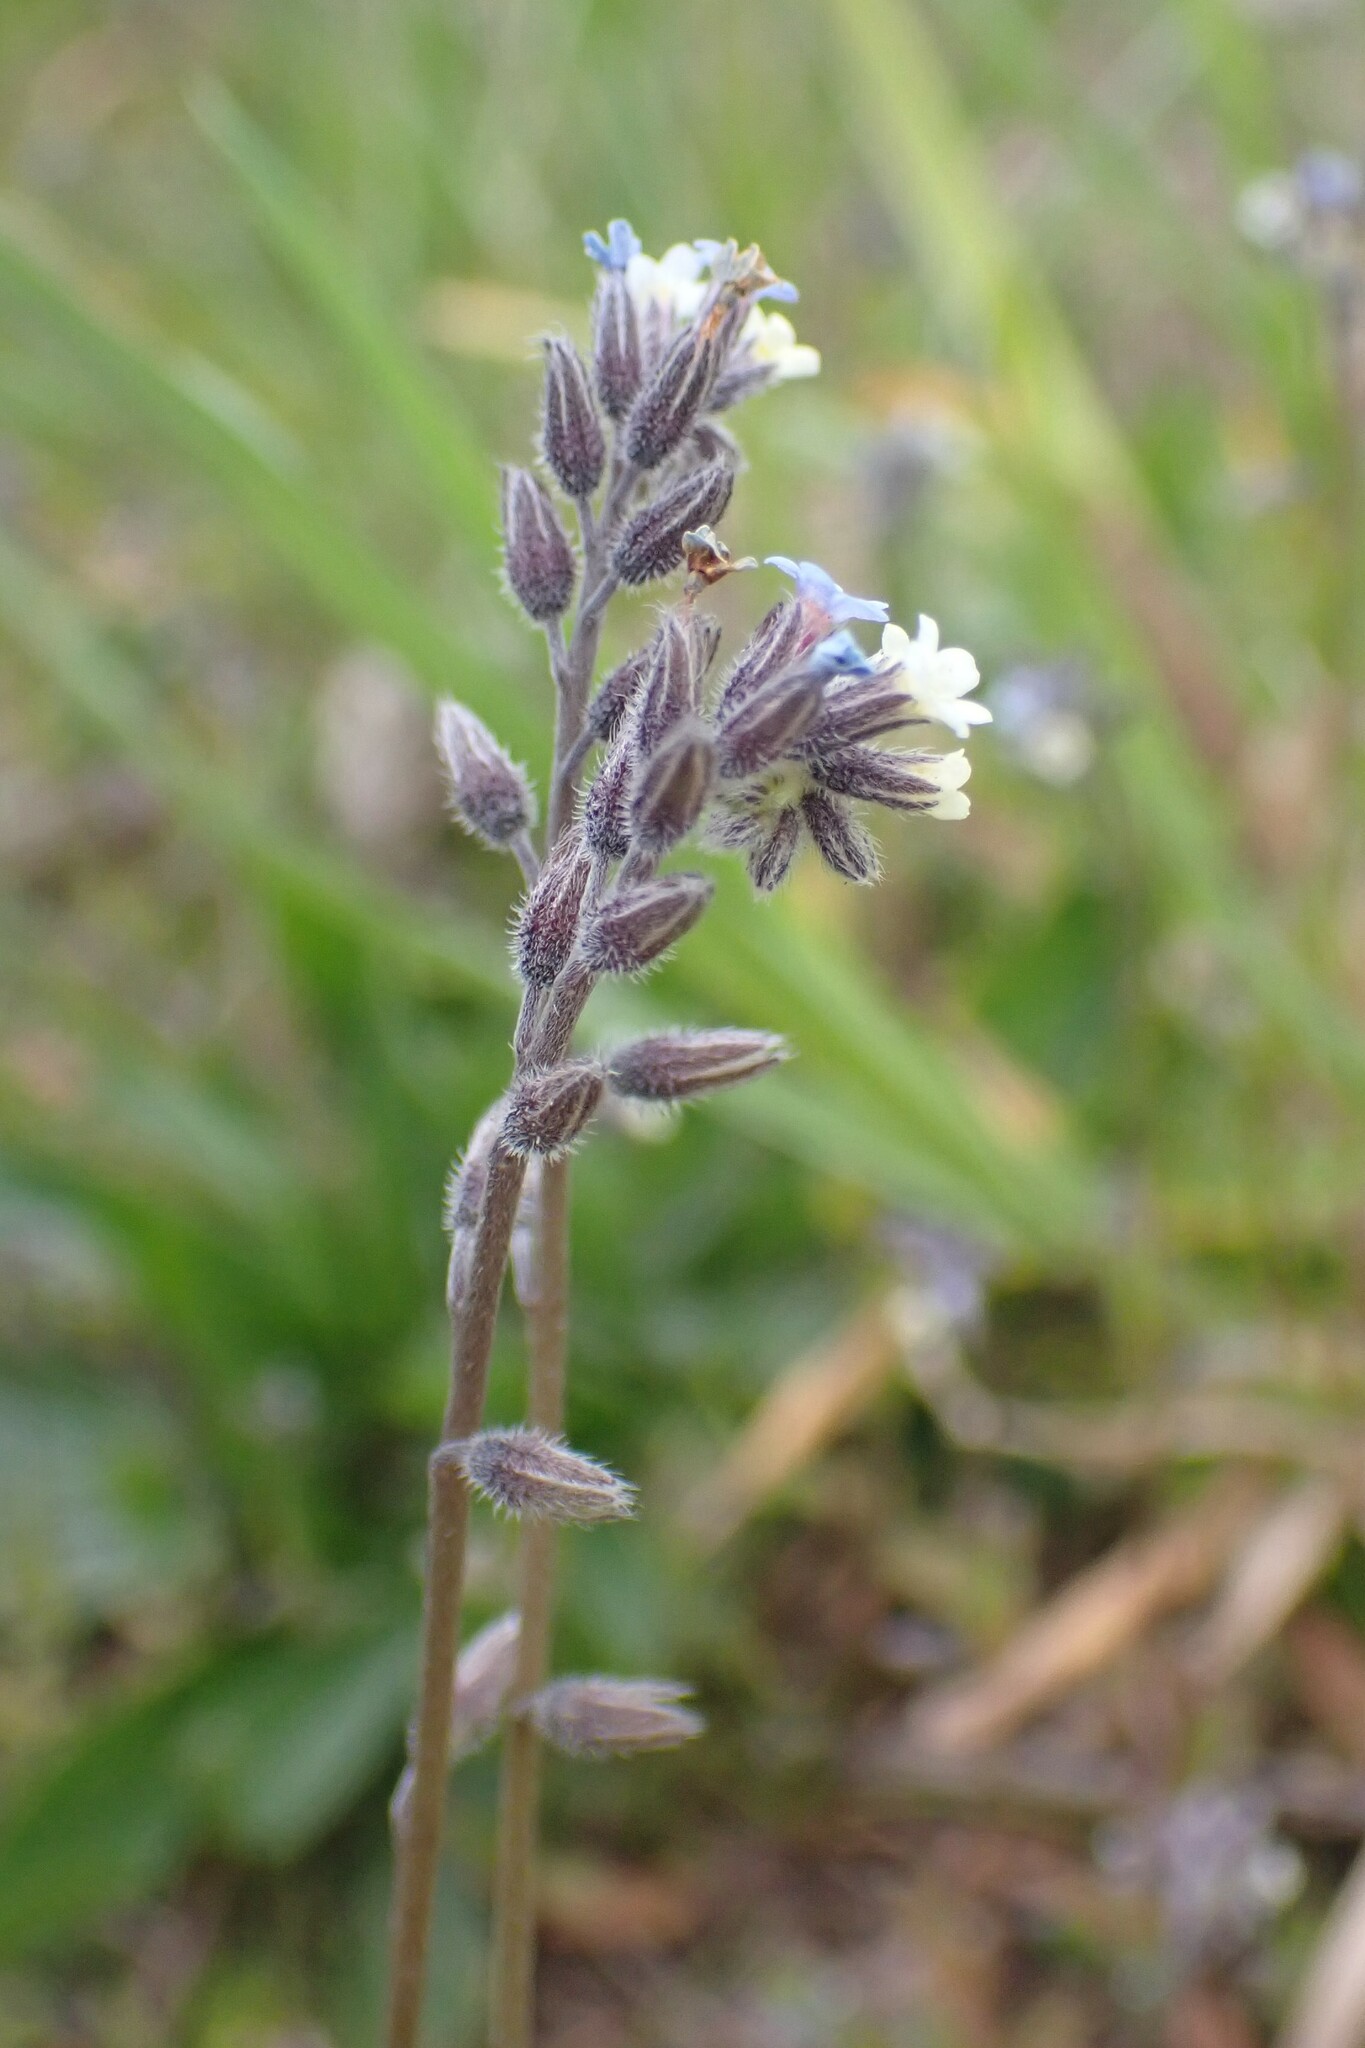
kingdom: Plantae
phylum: Tracheophyta
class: Magnoliopsida
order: Boraginales
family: Boraginaceae
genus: Myosotis
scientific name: Myosotis discolor
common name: Changing forget-me-not
